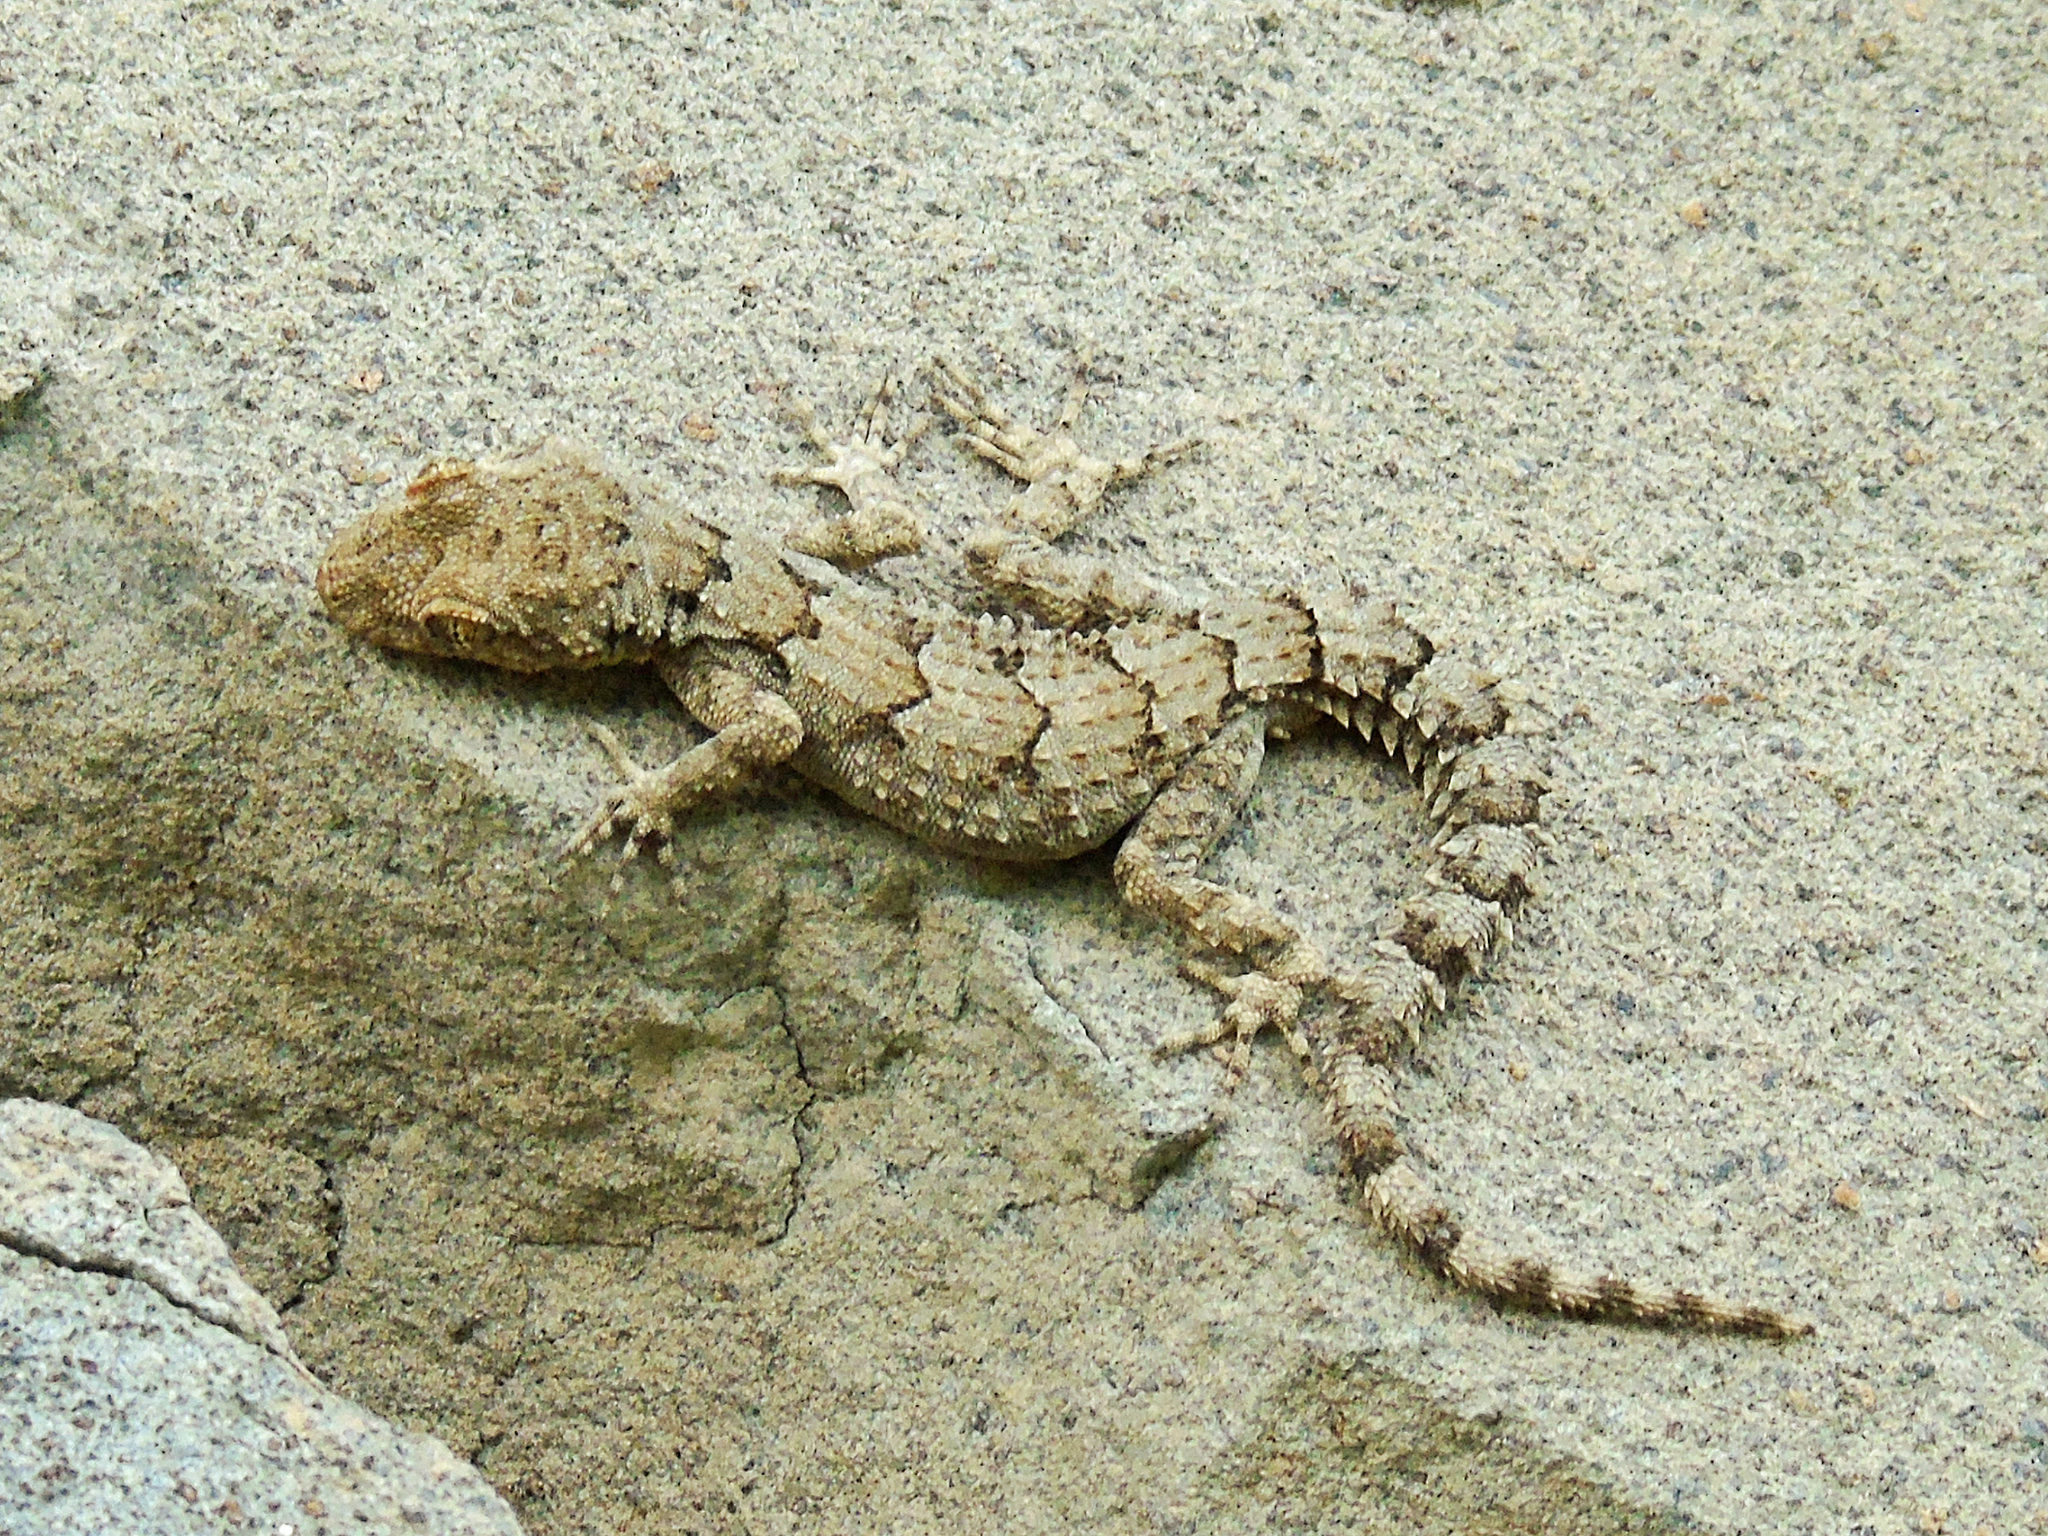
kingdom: Animalia
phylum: Chordata
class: Squamata
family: Gekkonidae
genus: Mediodactylus
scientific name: Mediodactylus heterocercus
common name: Asia minor thin-toed gecko
